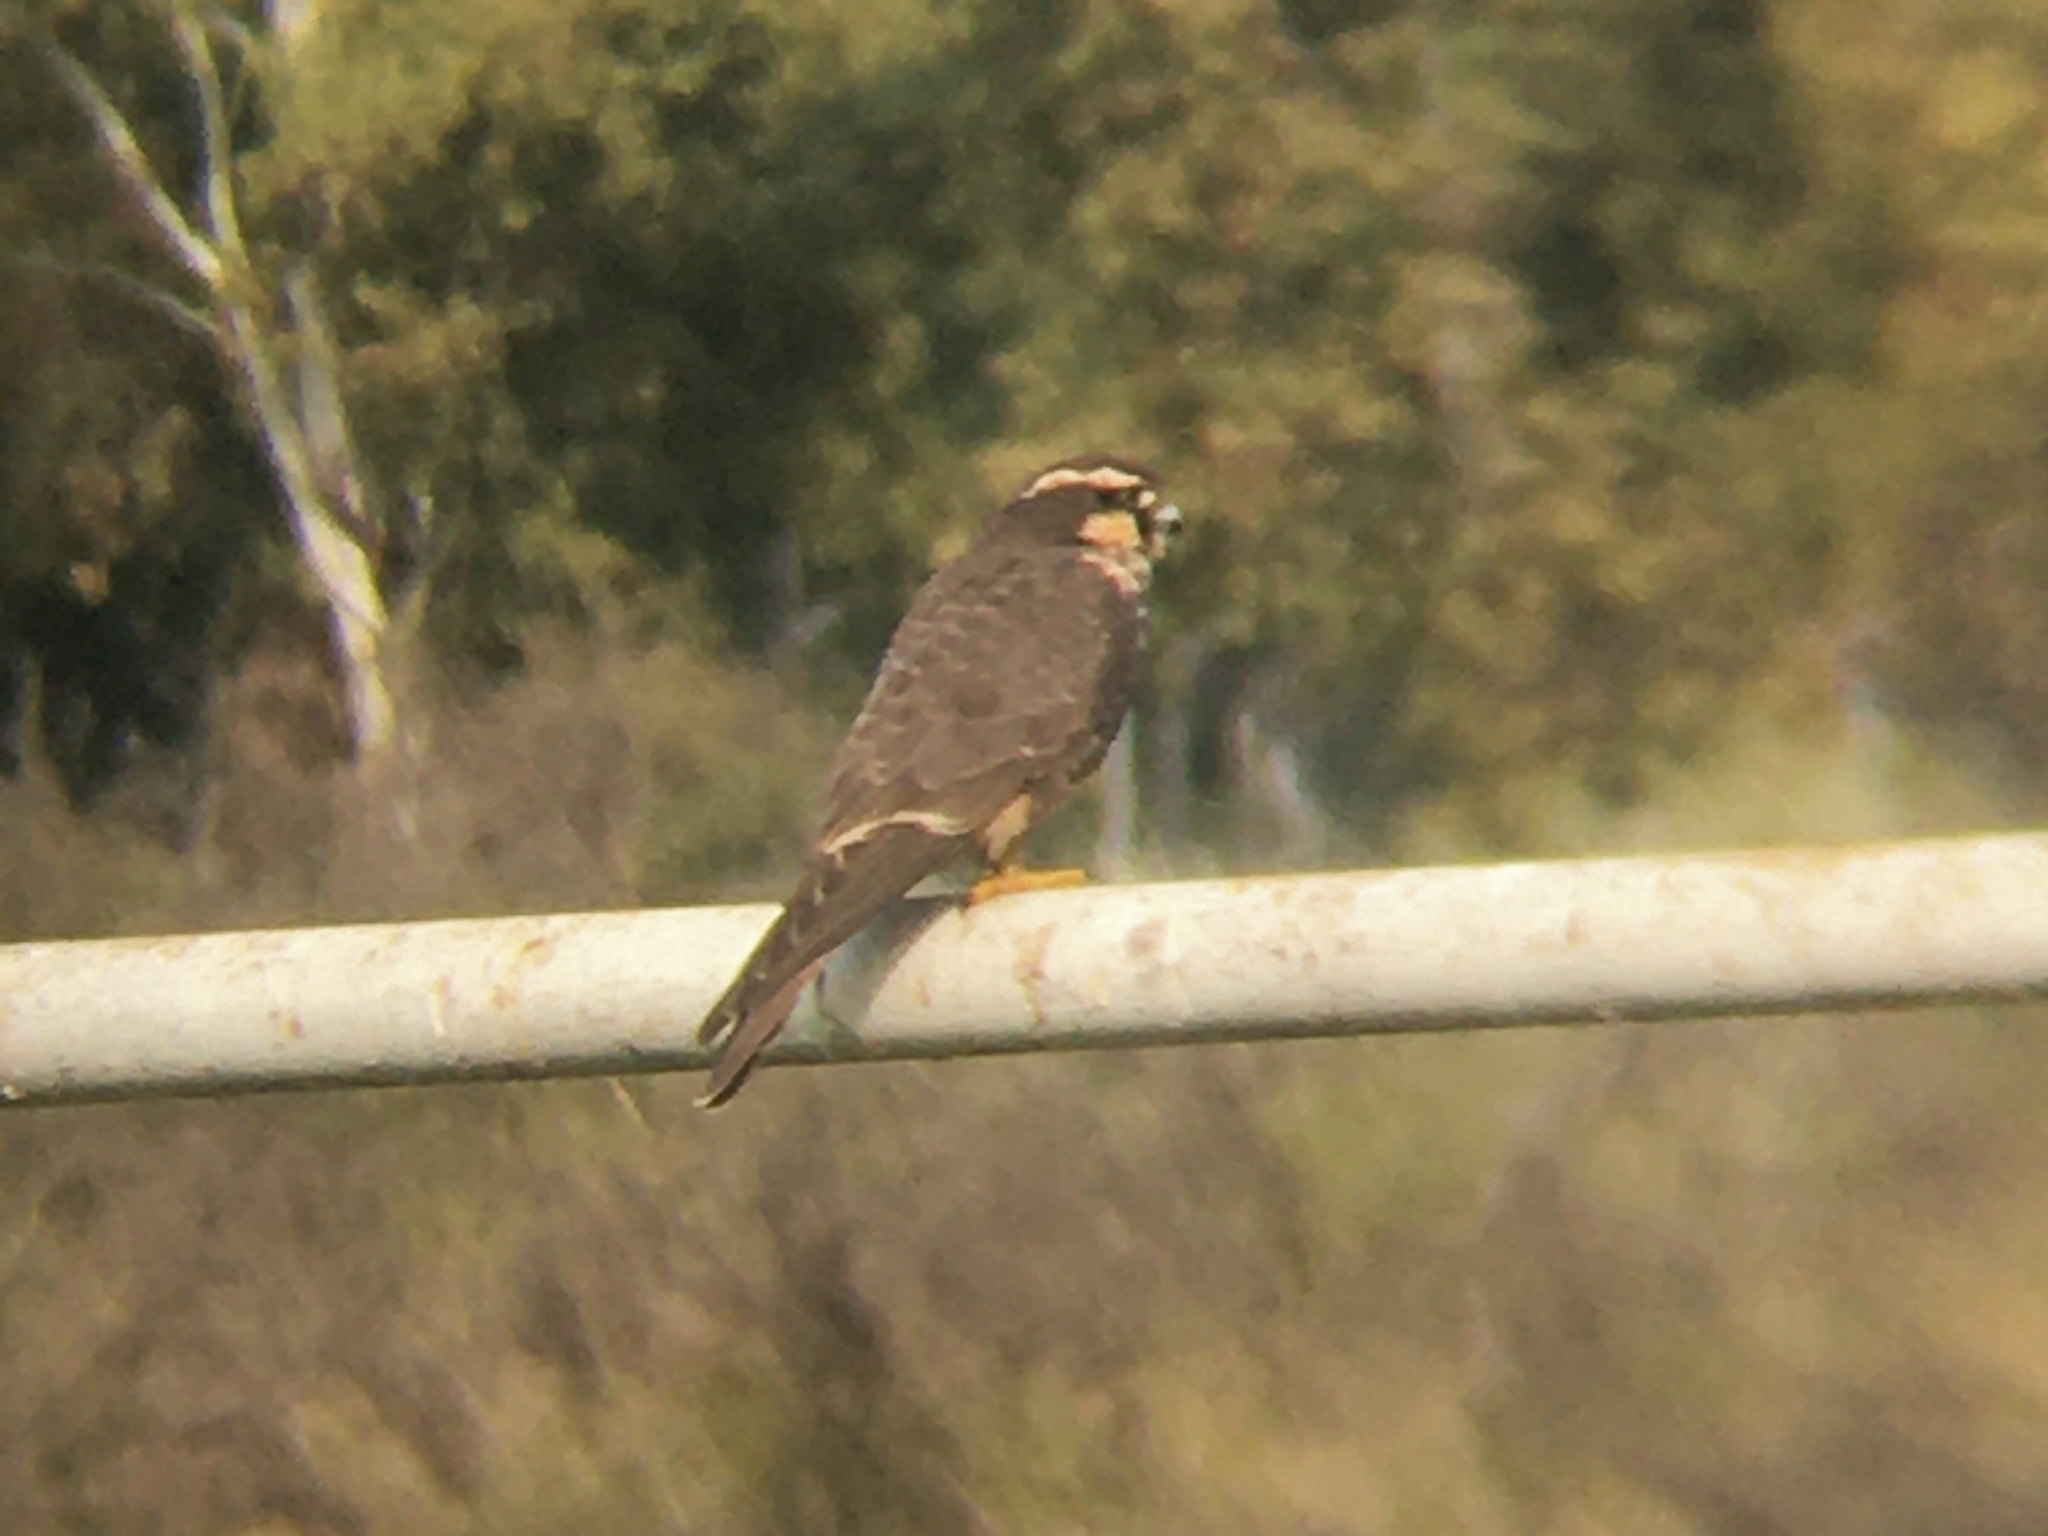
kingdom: Animalia
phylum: Chordata
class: Aves
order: Falconiformes
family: Falconidae
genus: Falco
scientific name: Falco femoralis
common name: Aplomado falcon
